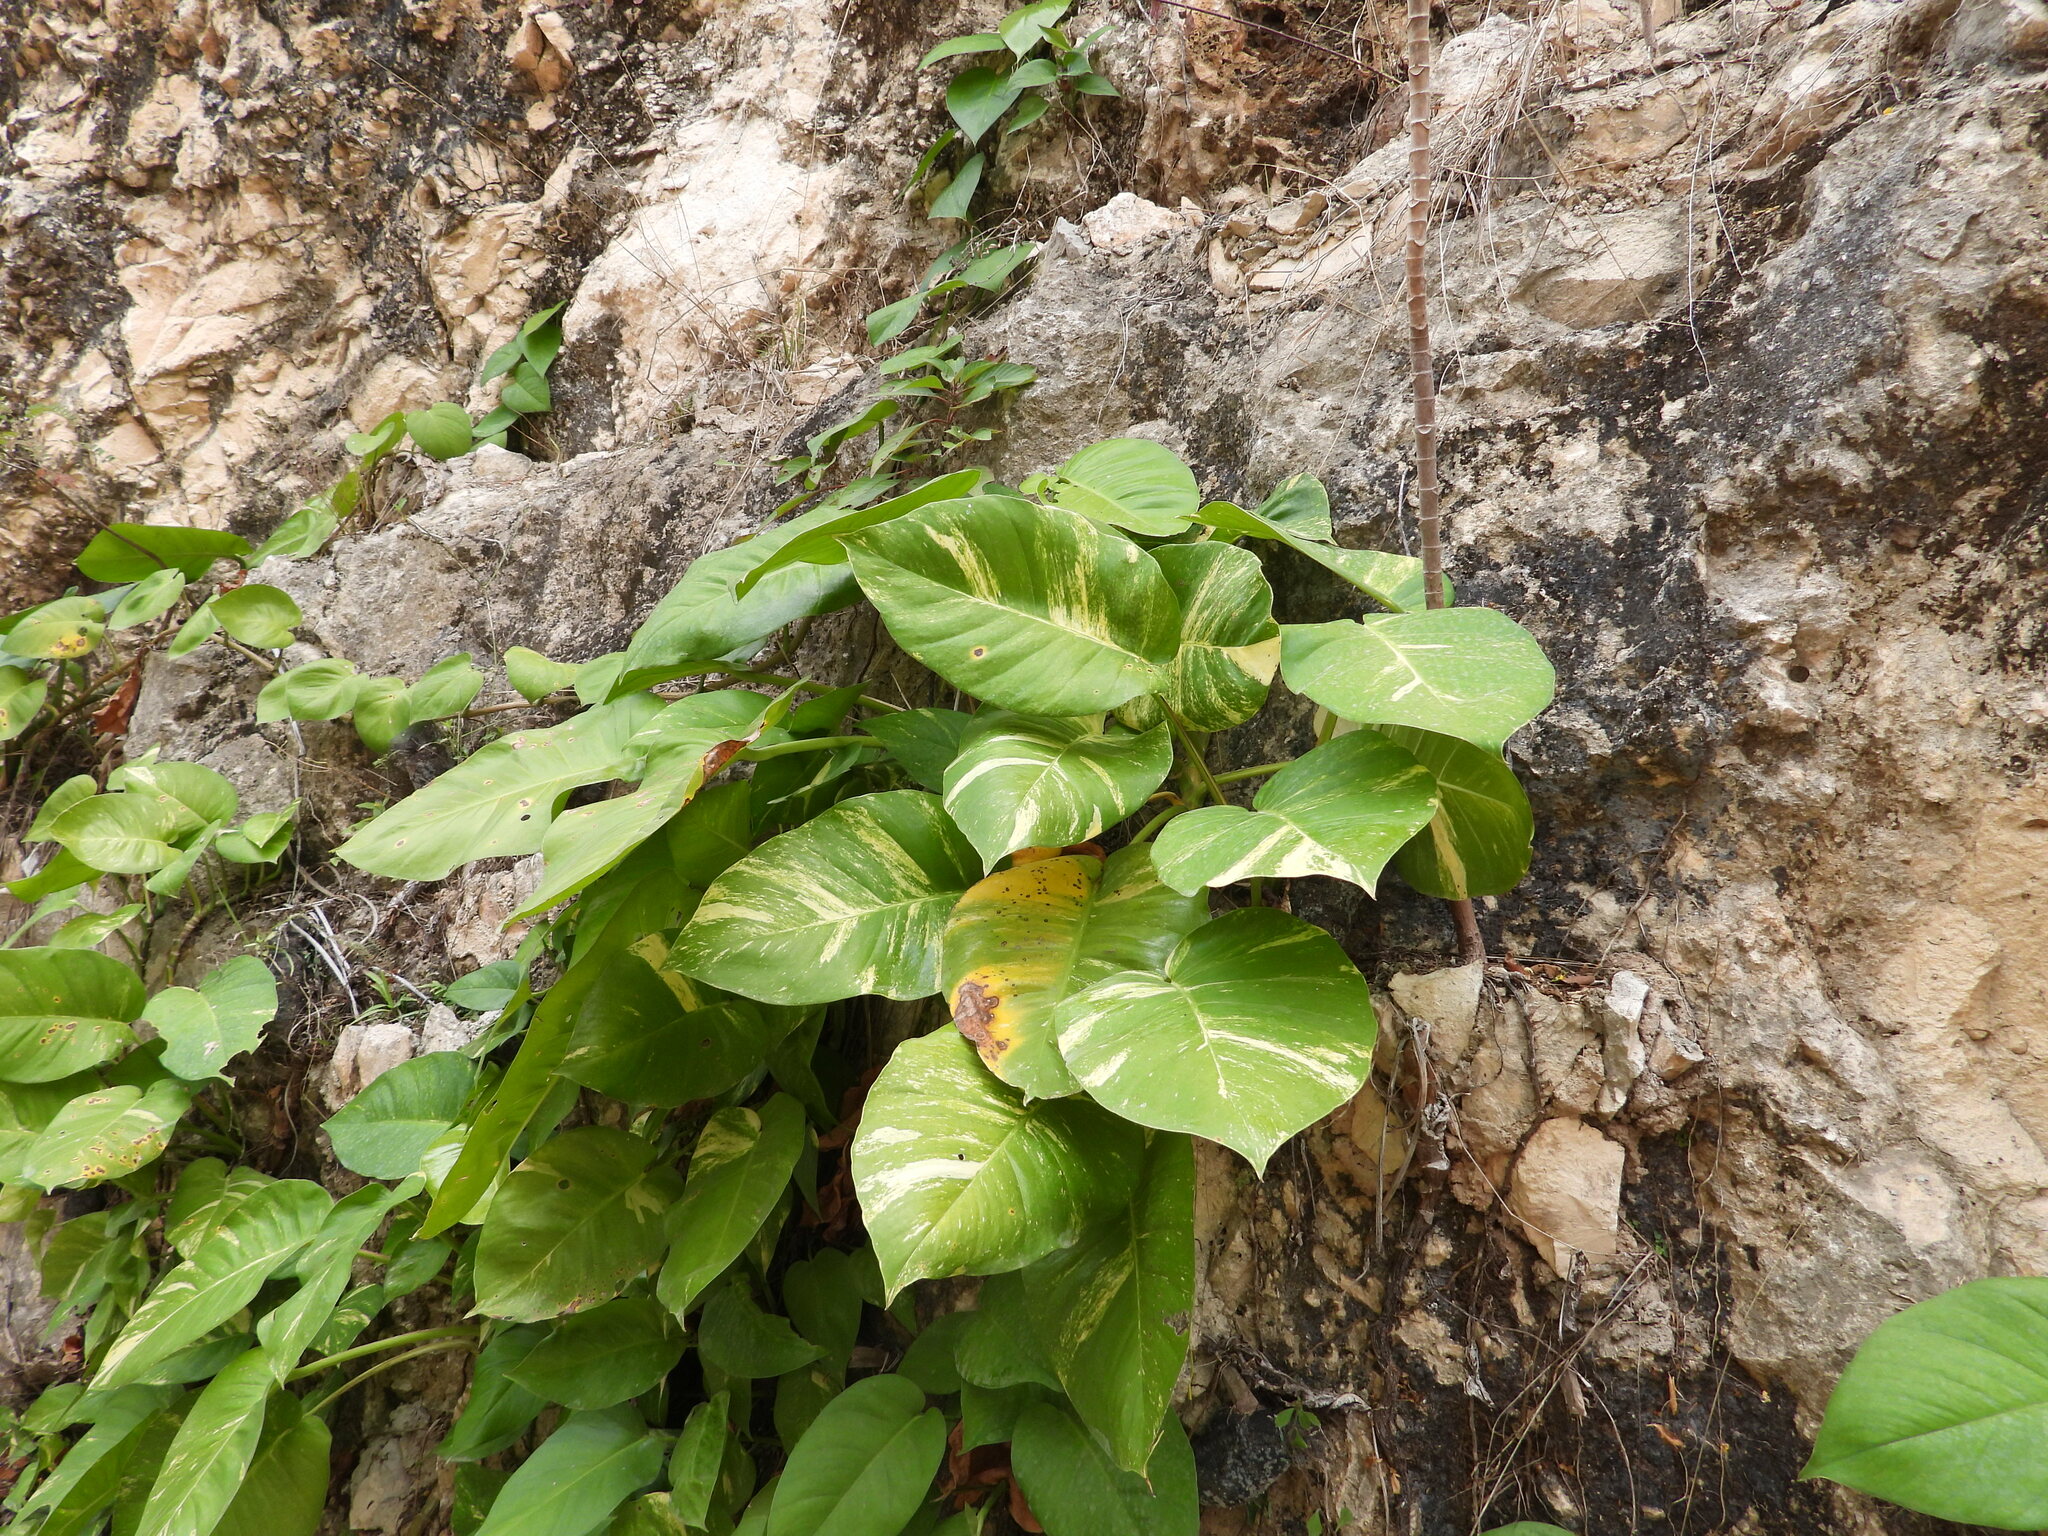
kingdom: Plantae
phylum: Tracheophyta
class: Liliopsida
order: Alismatales
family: Araceae
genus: Epipremnum
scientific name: Epipremnum aureum
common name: Golden hunter's-robe
